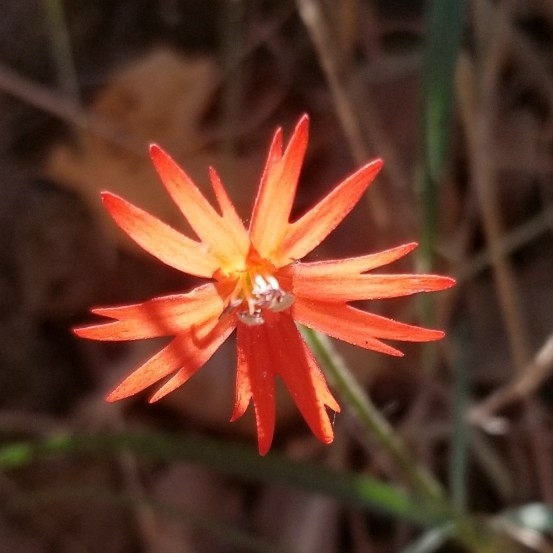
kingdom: Plantae
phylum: Tracheophyta
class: Magnoliopsida
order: Caryophyllales
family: Caryophyllaceae
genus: Silene
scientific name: Silene laciniata
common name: Indian-pink
